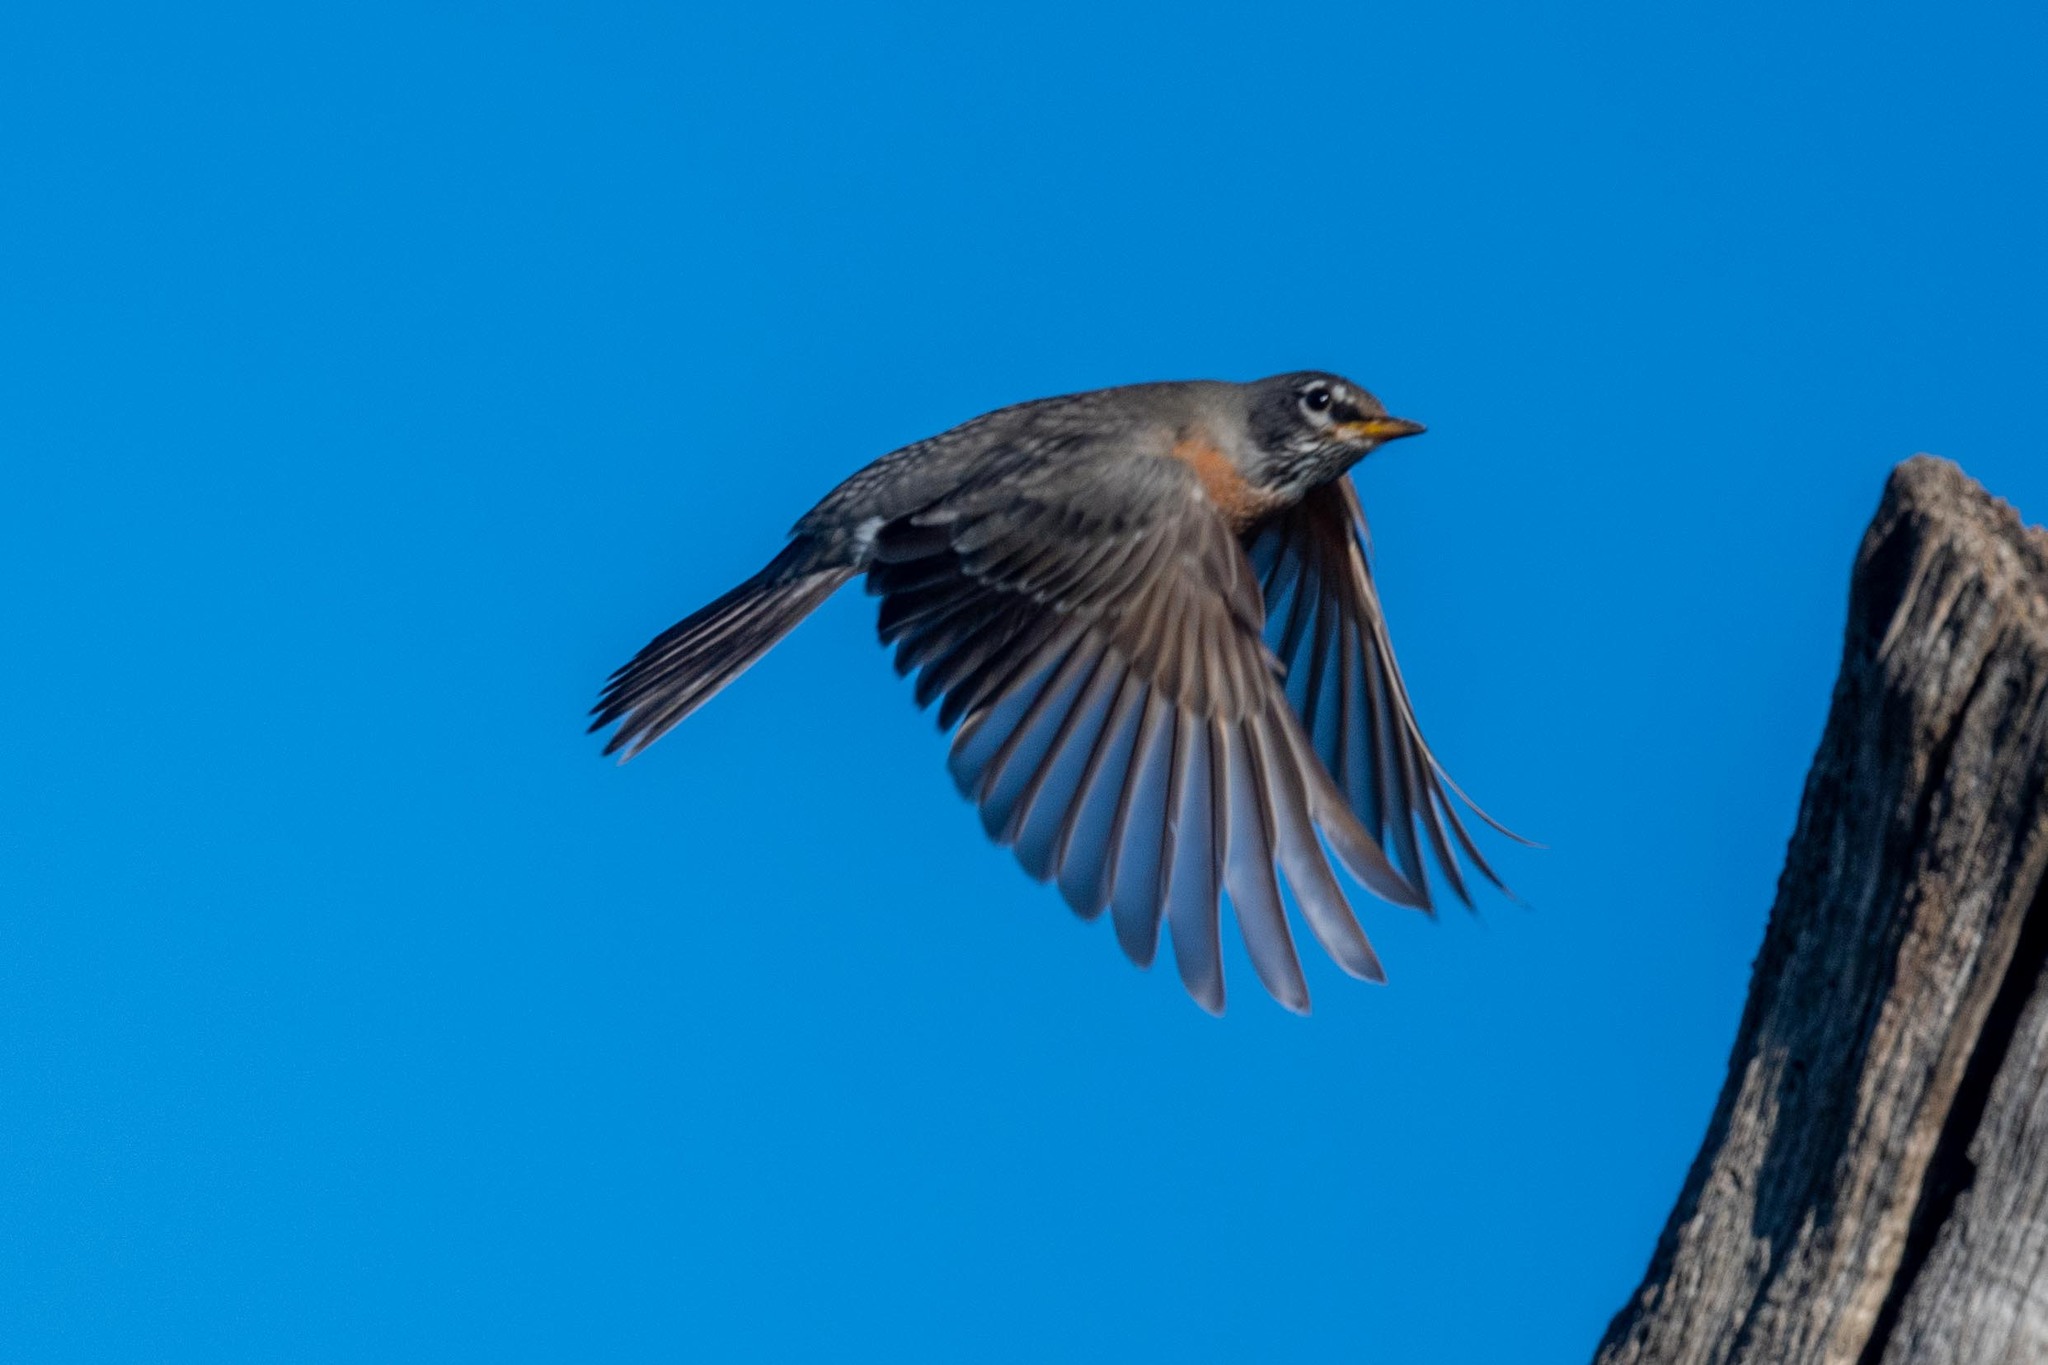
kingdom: Animalia
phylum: Chordata
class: Aves
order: Passeriformes
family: Turdidae
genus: Turdus
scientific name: Turdus migratorius
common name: American robin
